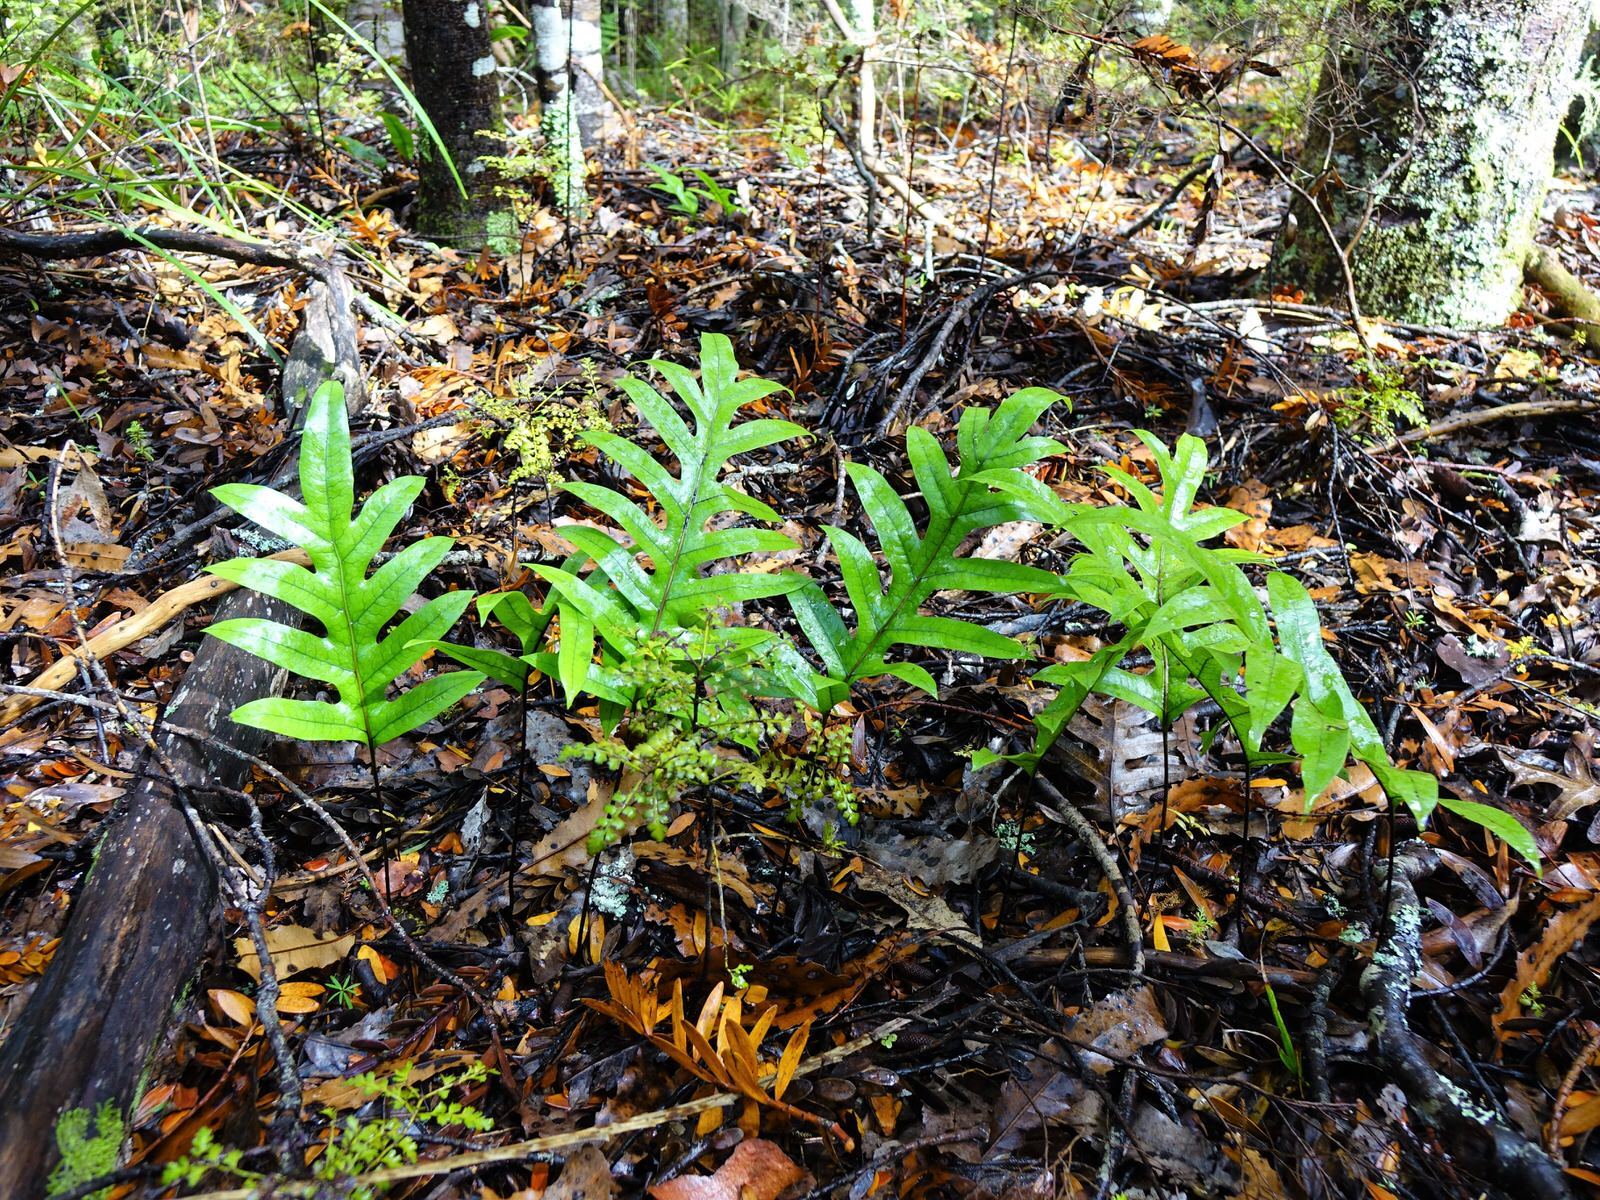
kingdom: Plantae
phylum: Tracheophyta
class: Polypodiopsida
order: Polypodiales
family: Polypodiaceae
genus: Lecanopteris
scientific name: Lecanopteris pustulata
